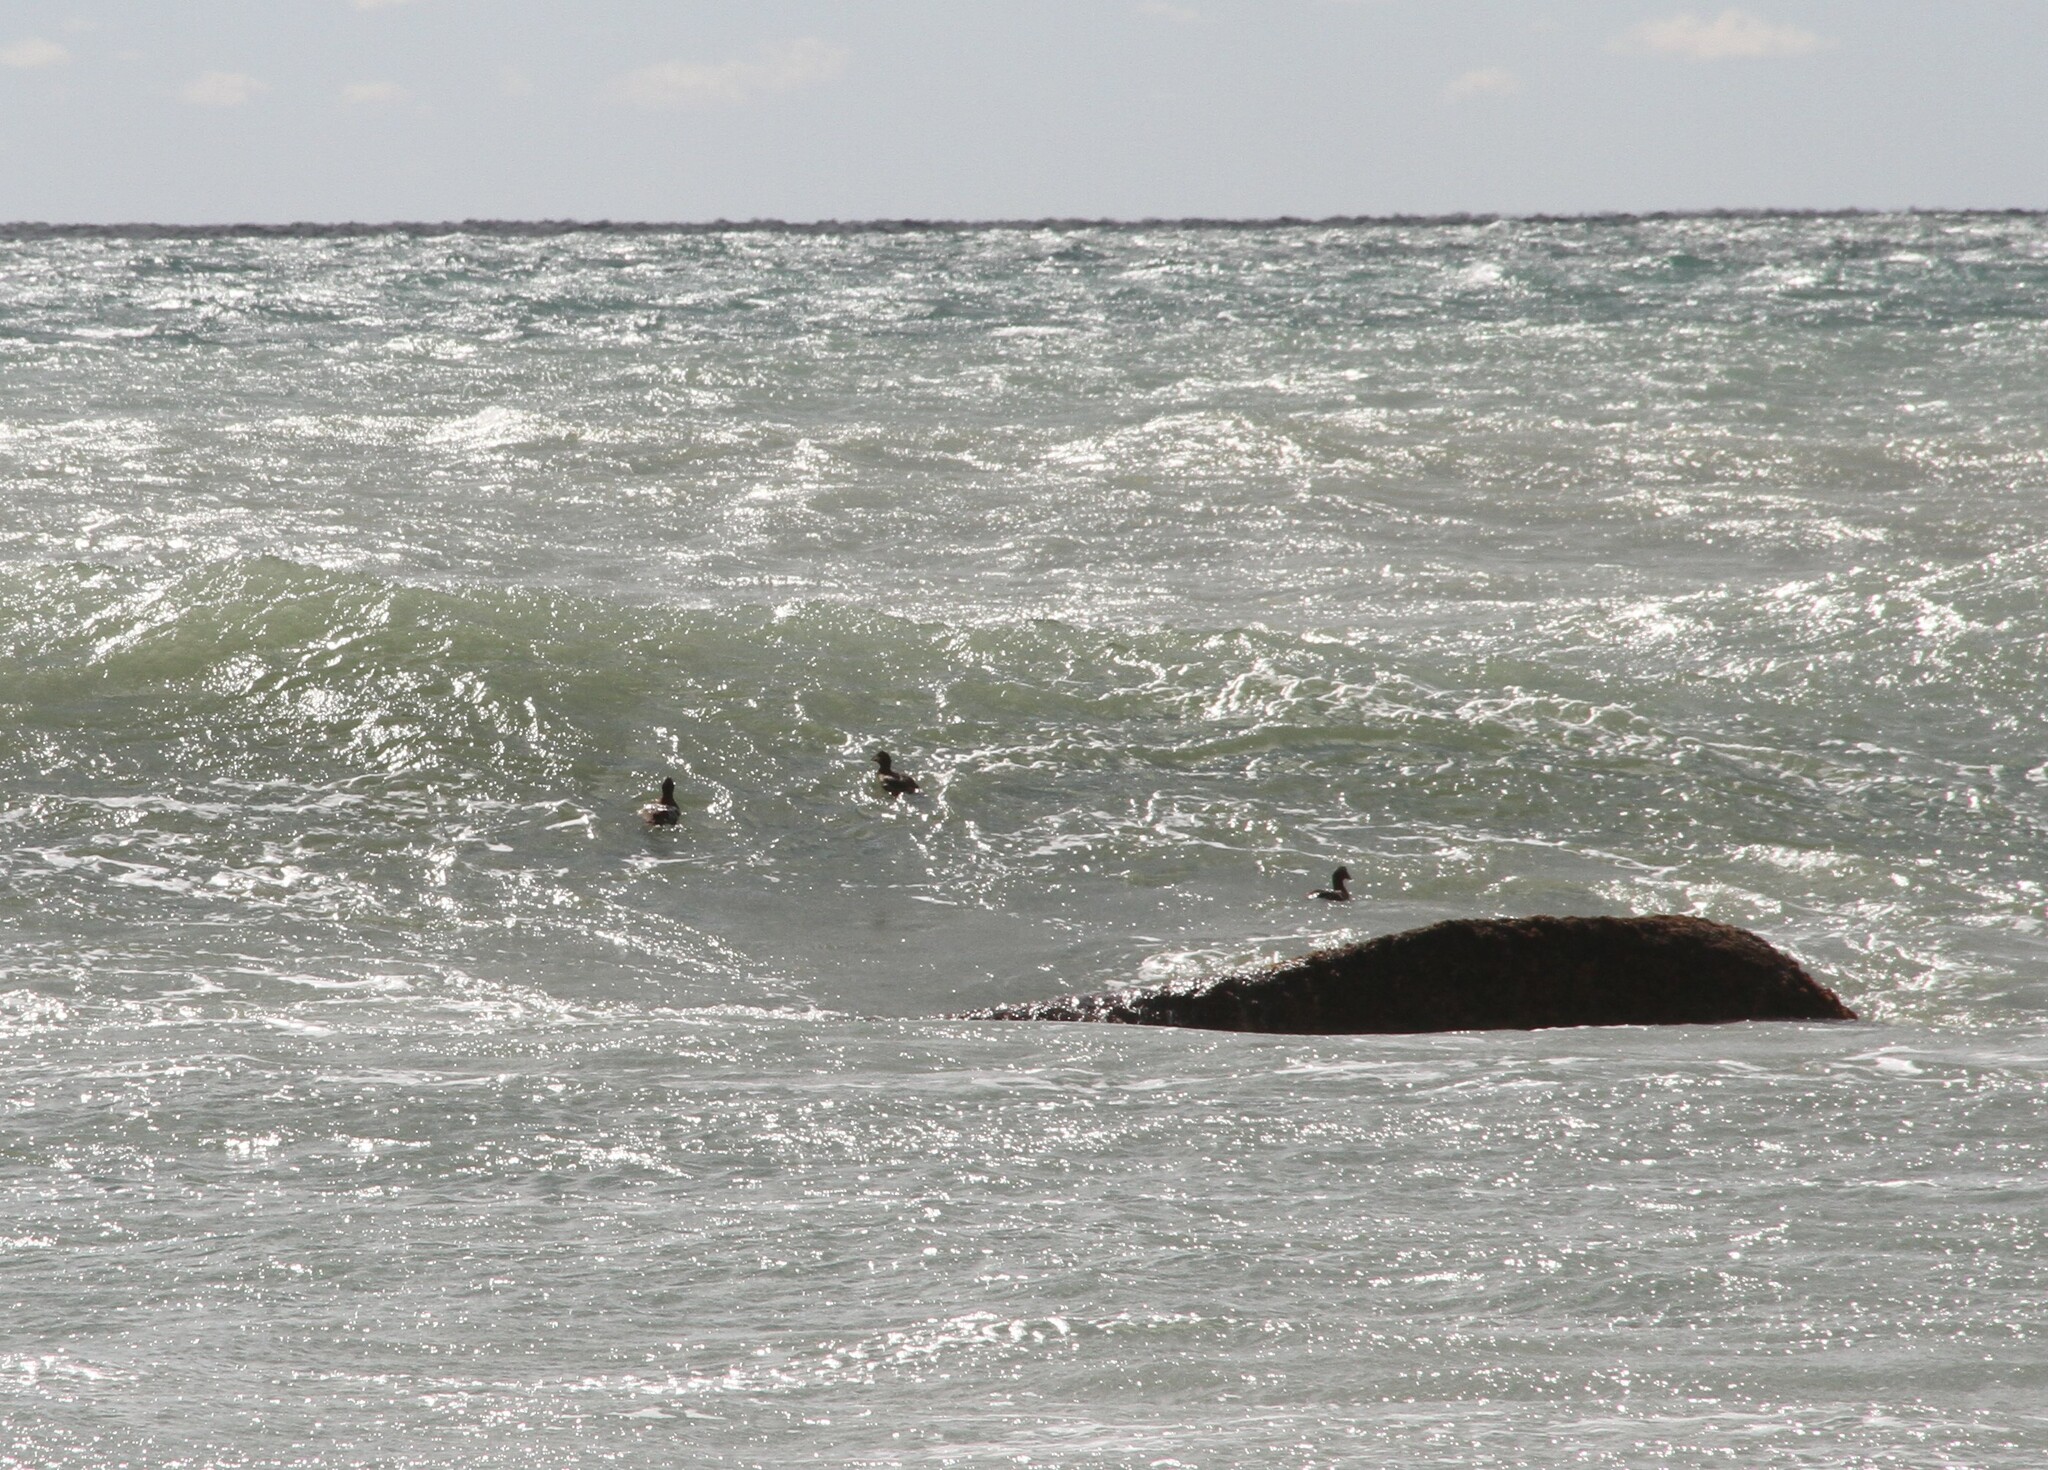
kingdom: Animalia
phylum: Chordata
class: Aves
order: Anseriformes
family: Anatidae
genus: Melanitta
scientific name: Melanitta americana
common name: Black scoter
